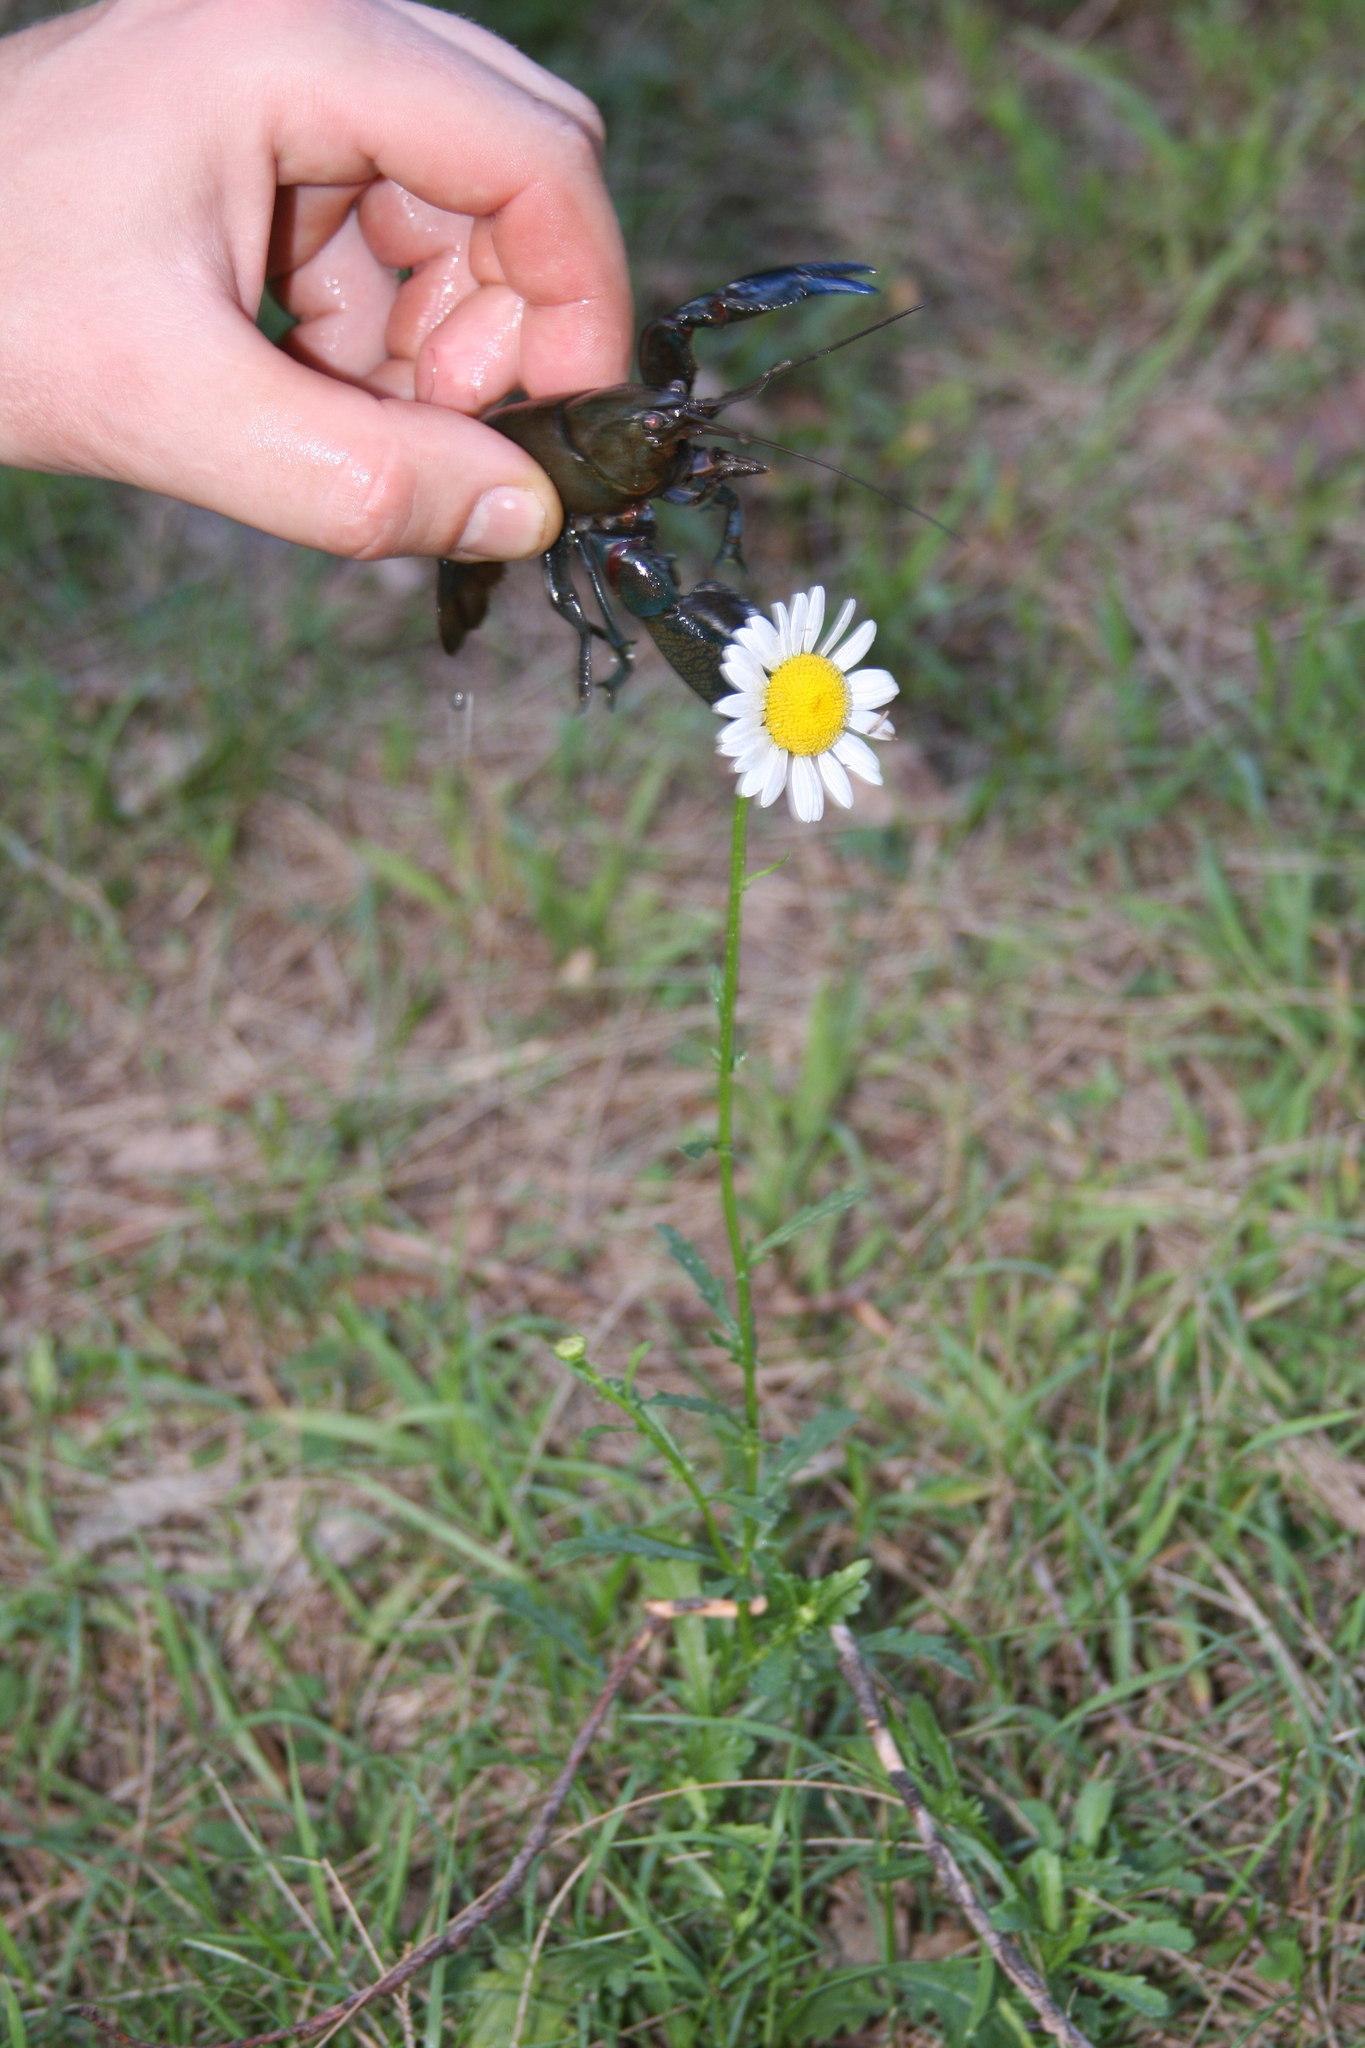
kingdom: Plantae
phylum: Tracheophyta
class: Magnoliopsida
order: Asterales
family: Asteraceae
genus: Leucanthemum
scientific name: Leucanthemum vulgare
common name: Oxeye daisy
